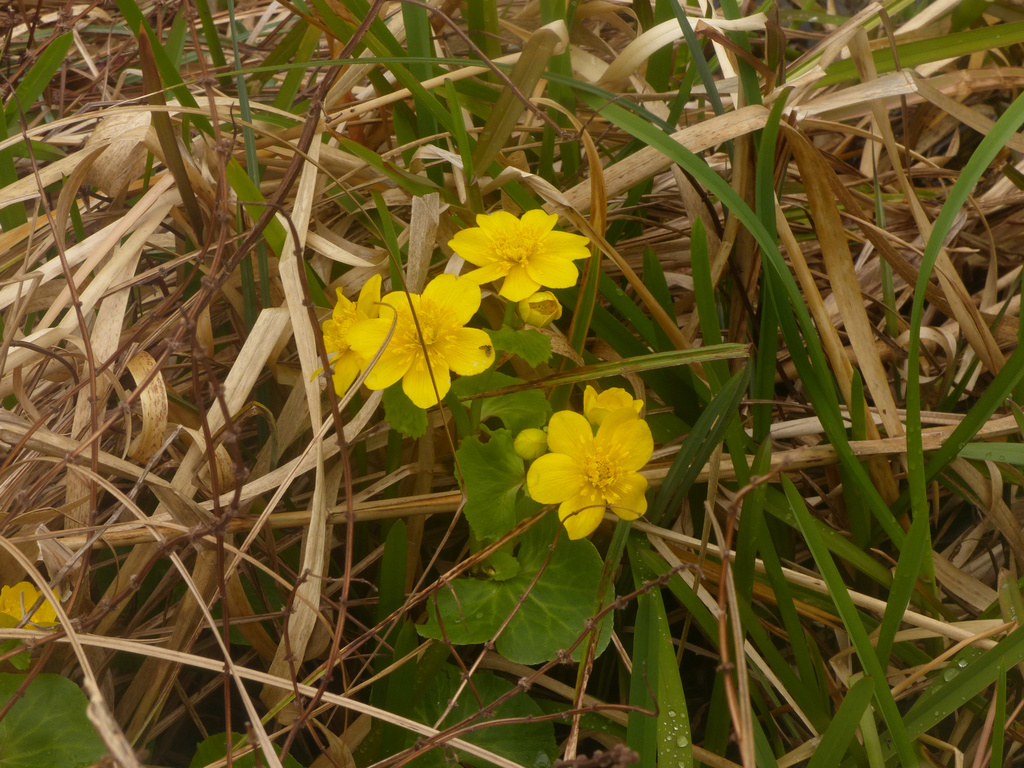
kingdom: Plantae
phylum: Tracheophyta
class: Magnoliopsida
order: Ranunculales
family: Ranunculaceae
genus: Caltha
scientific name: Caltha palustris
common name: Marsh marigold
